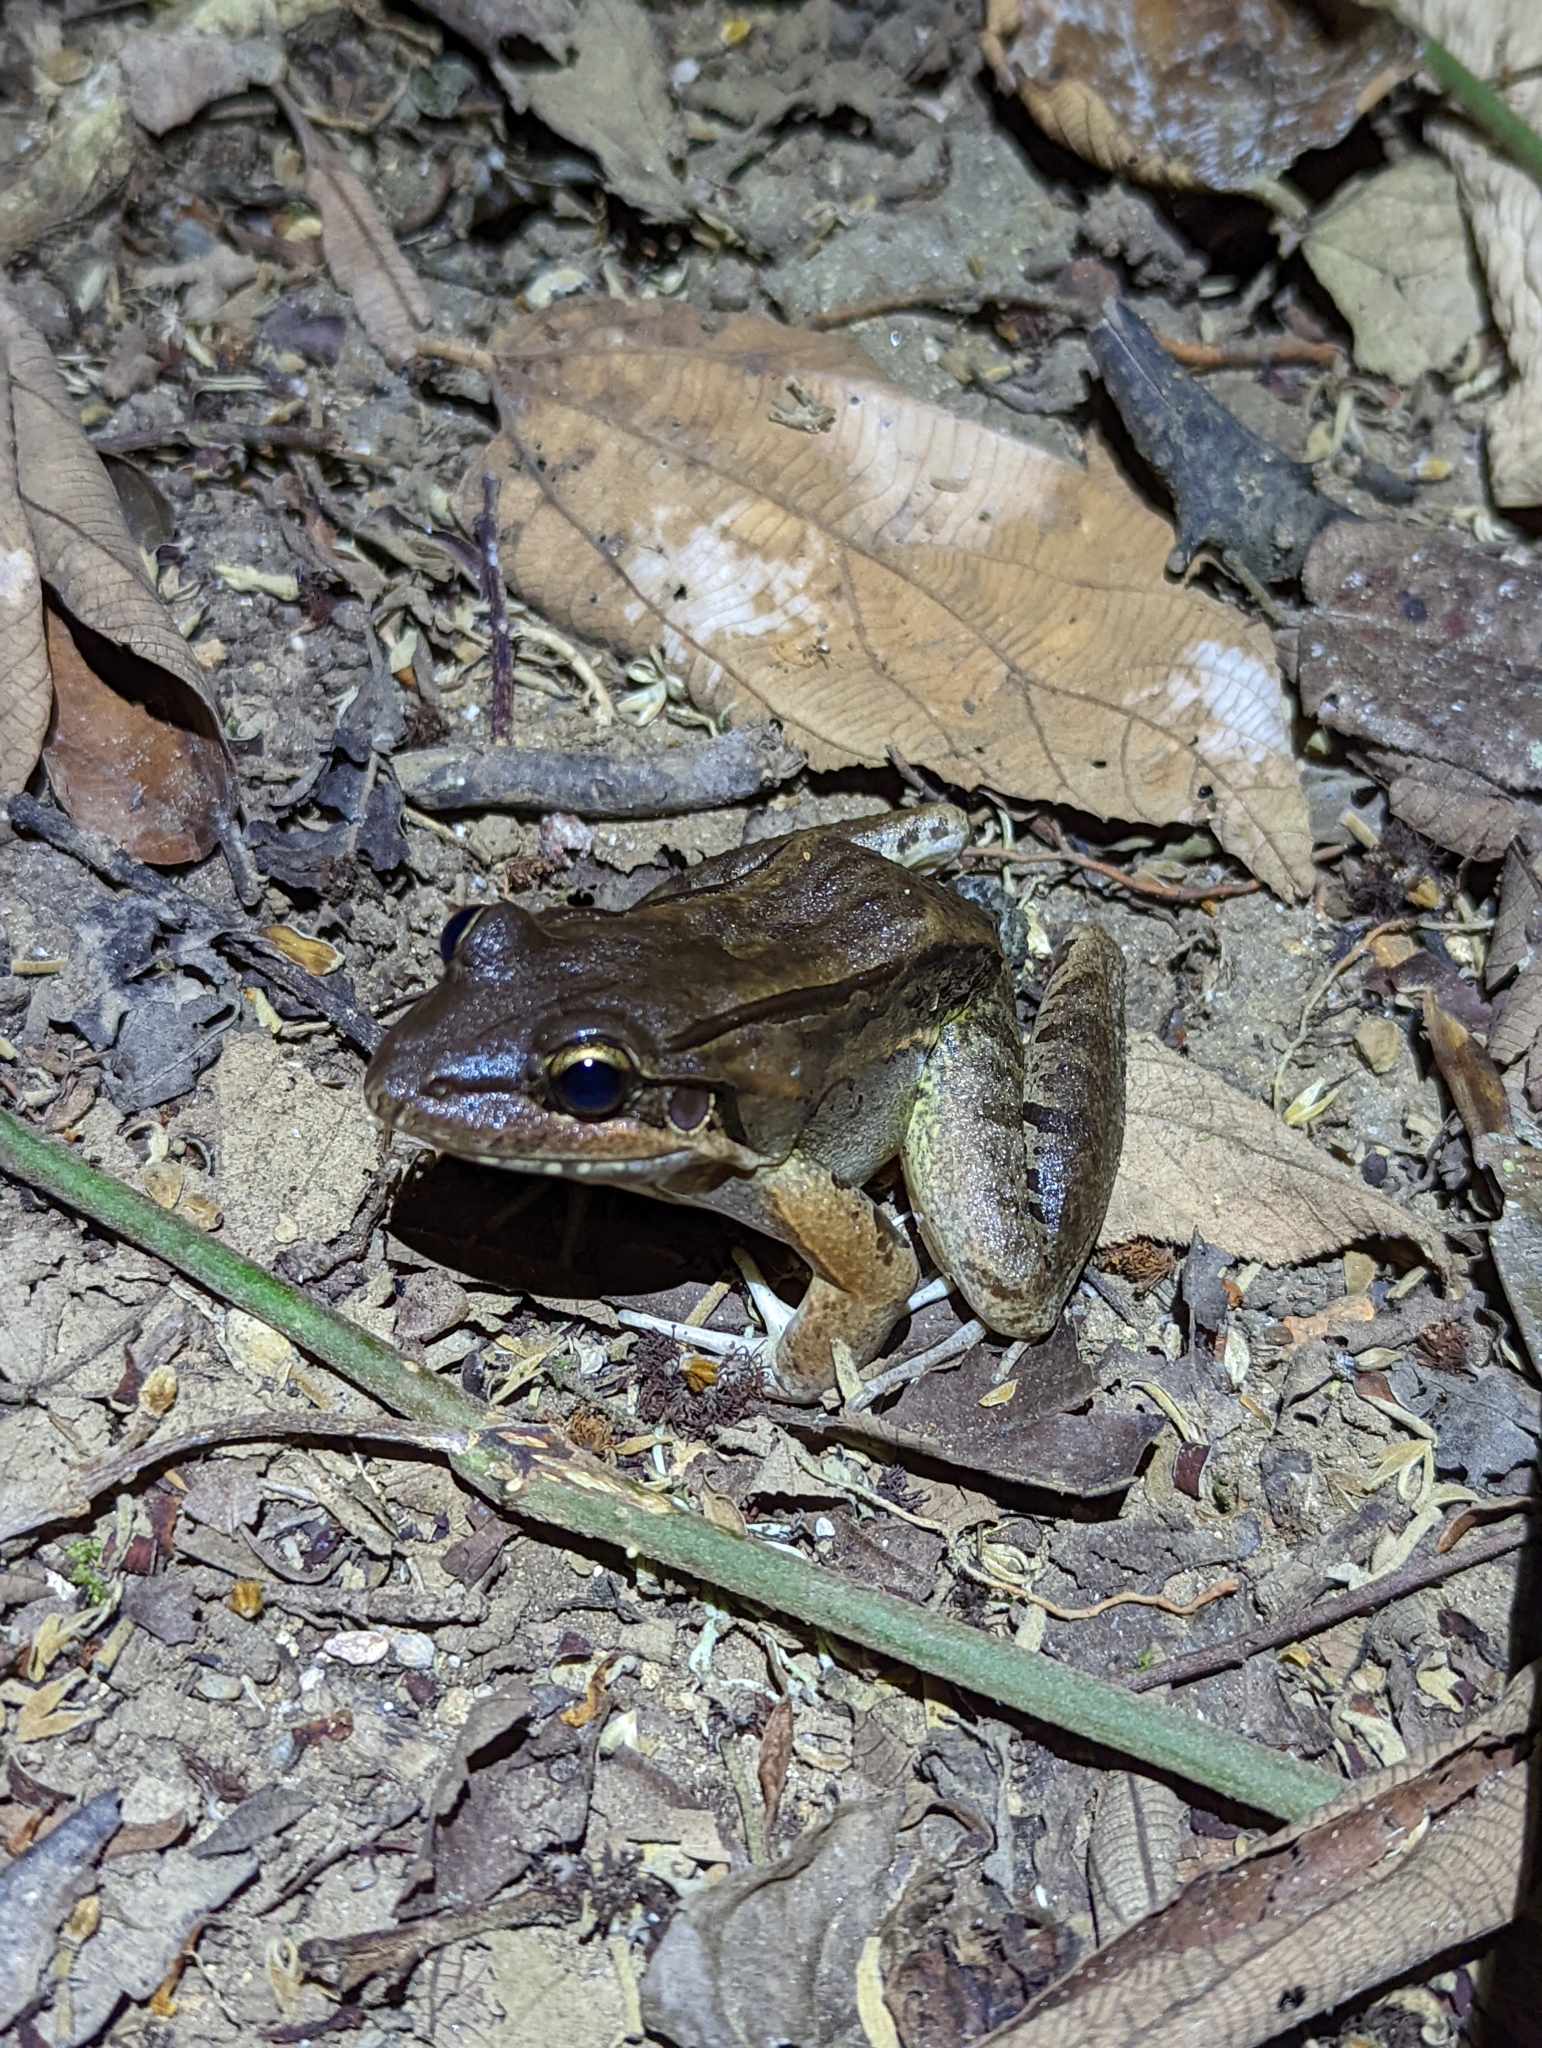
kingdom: Animalia
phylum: Chordata
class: Amphibia
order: Anura
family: Leptodactylidae
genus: Leptodactylus
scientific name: Leptodactylus insularum
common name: San miguel island frog
